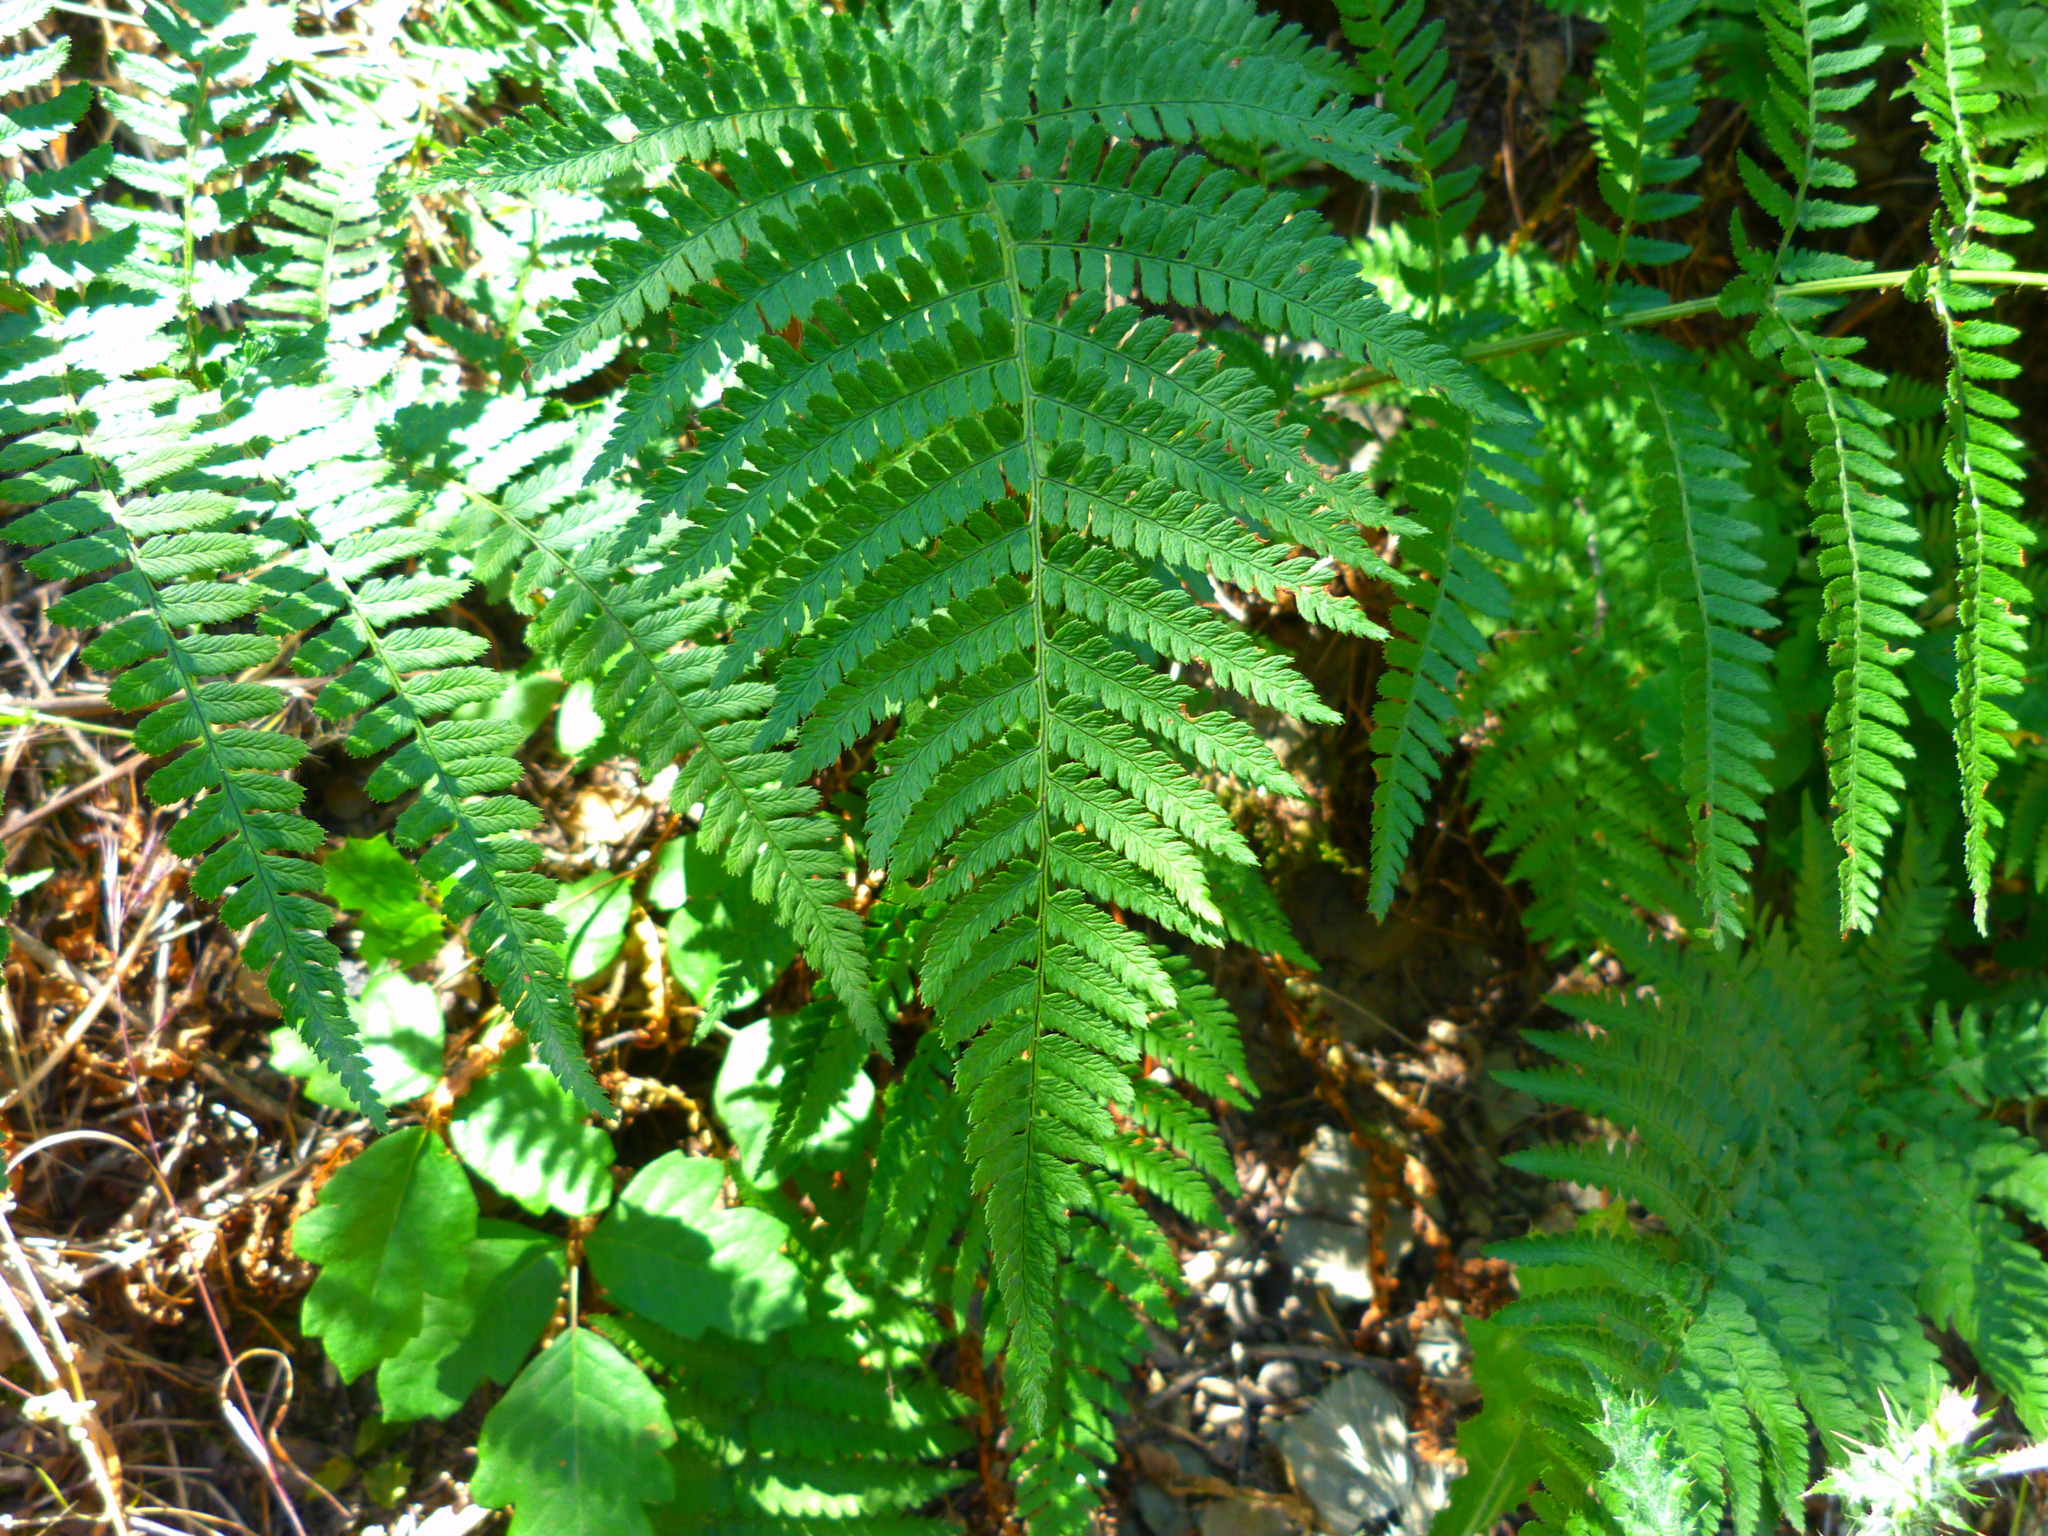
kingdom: Plantae
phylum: Tracheophyta
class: Polypodiopsida
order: Polypodiales
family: Dryopteridaceae
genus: Dryopteris
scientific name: Dryopteris arguta
